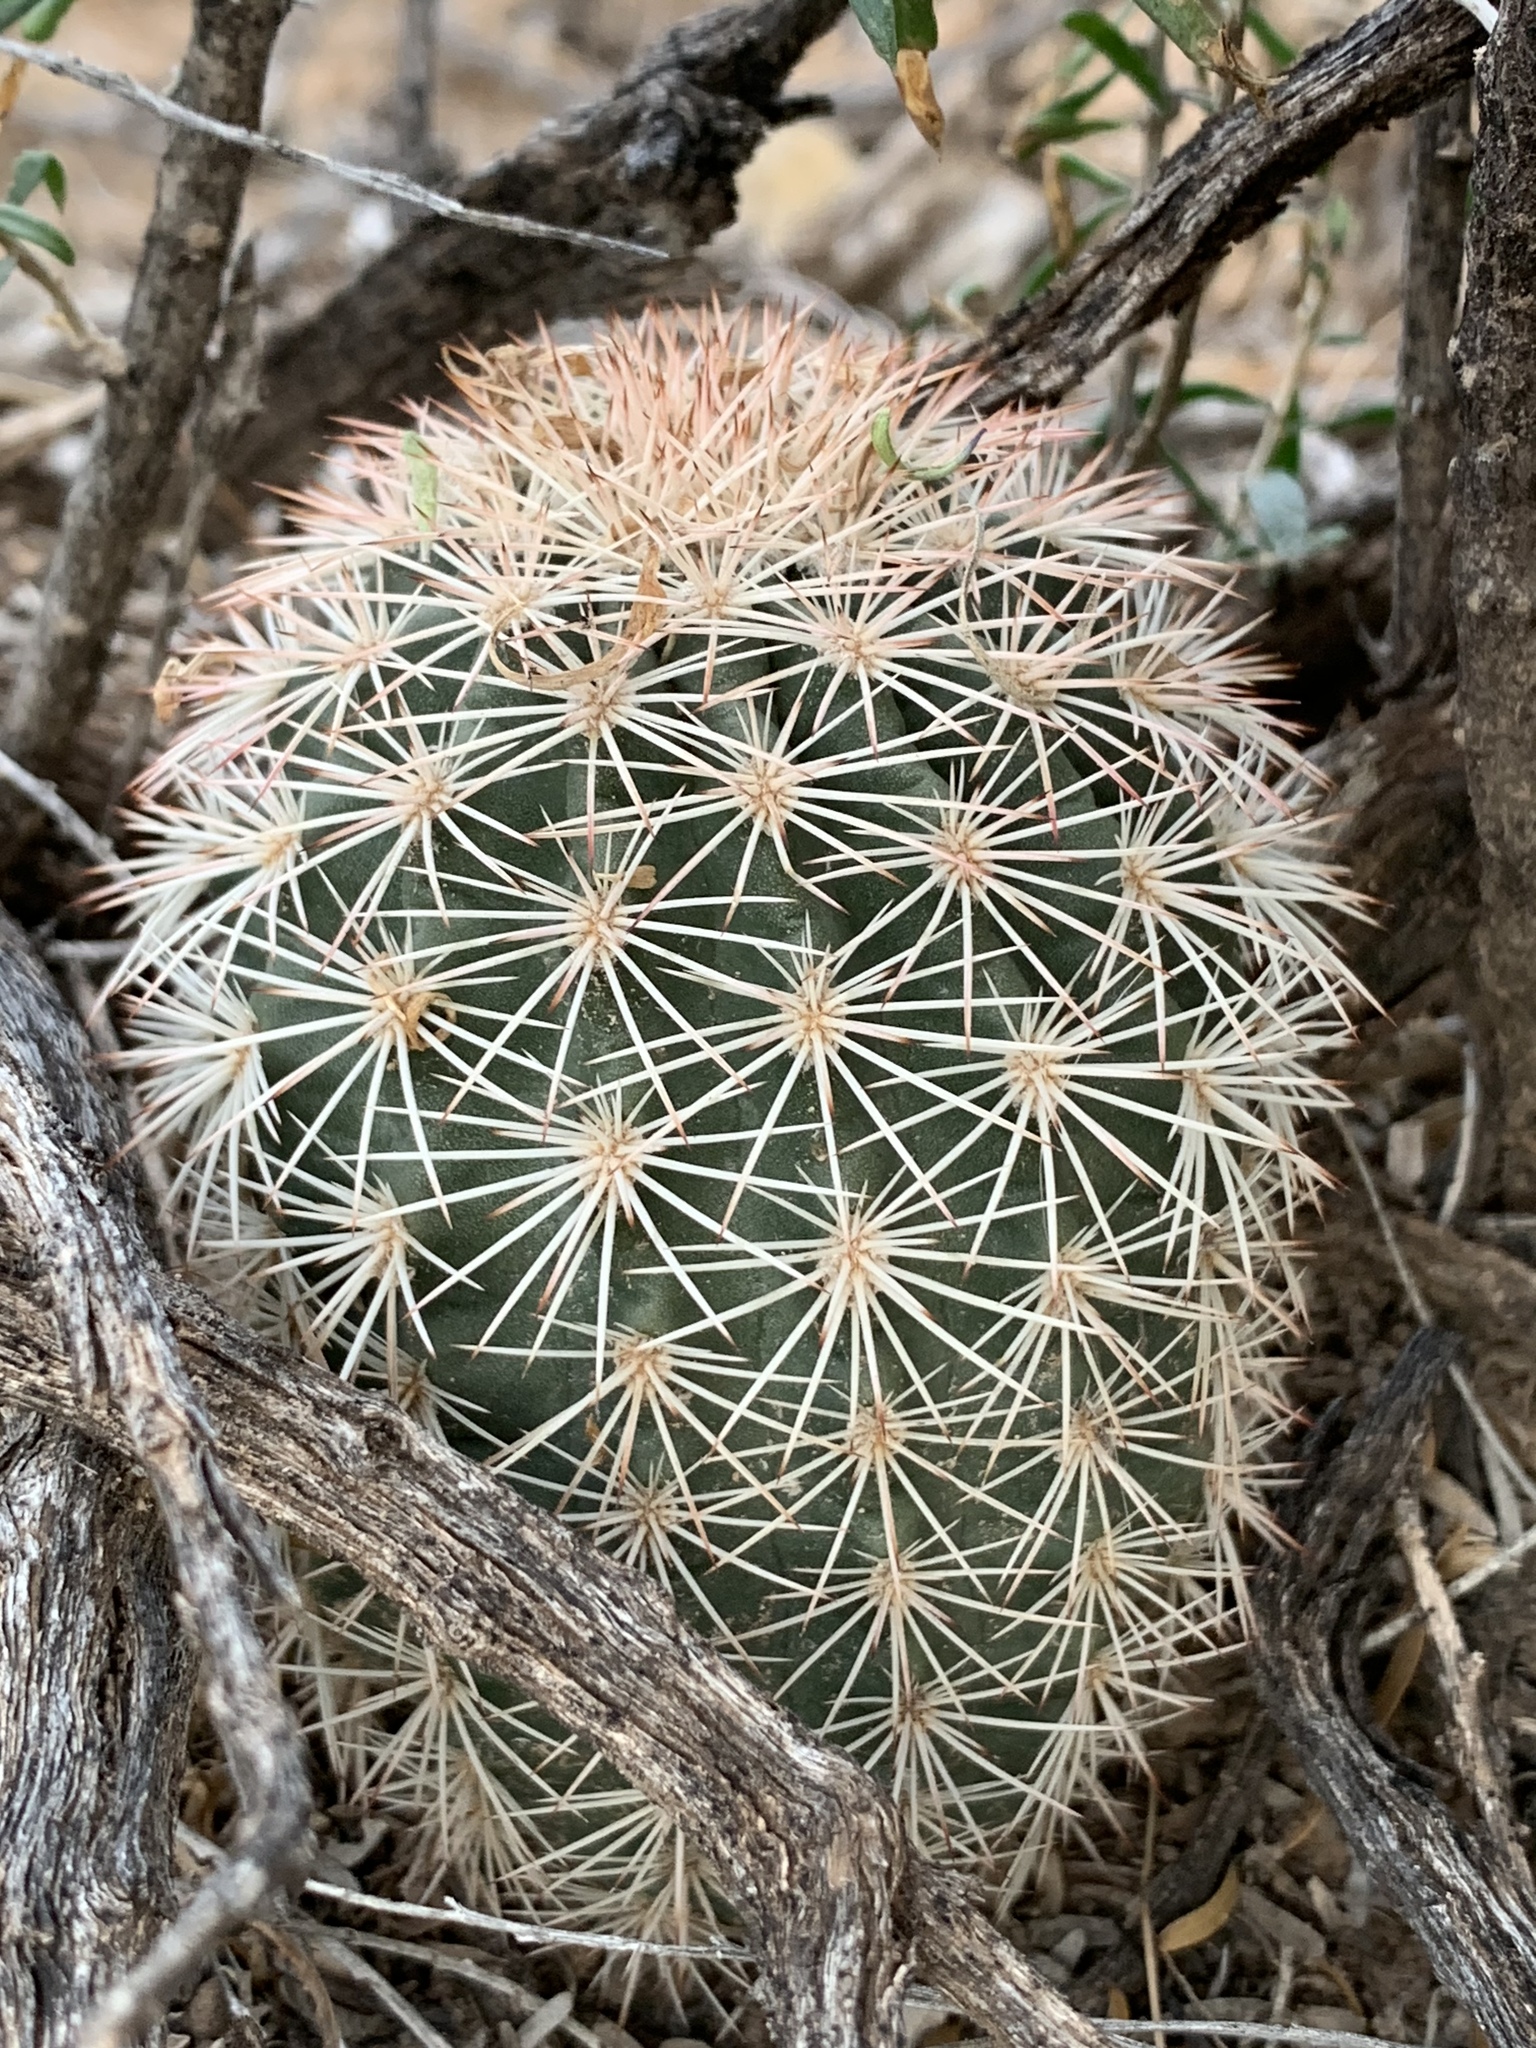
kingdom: Plantae
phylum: Tracheophyta
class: Magnoliopsida
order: Caryophyllales
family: Cactaceae
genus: Echinocereus
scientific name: Echinocereus dasyacanthus
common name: Spiny hedgehog cactus
